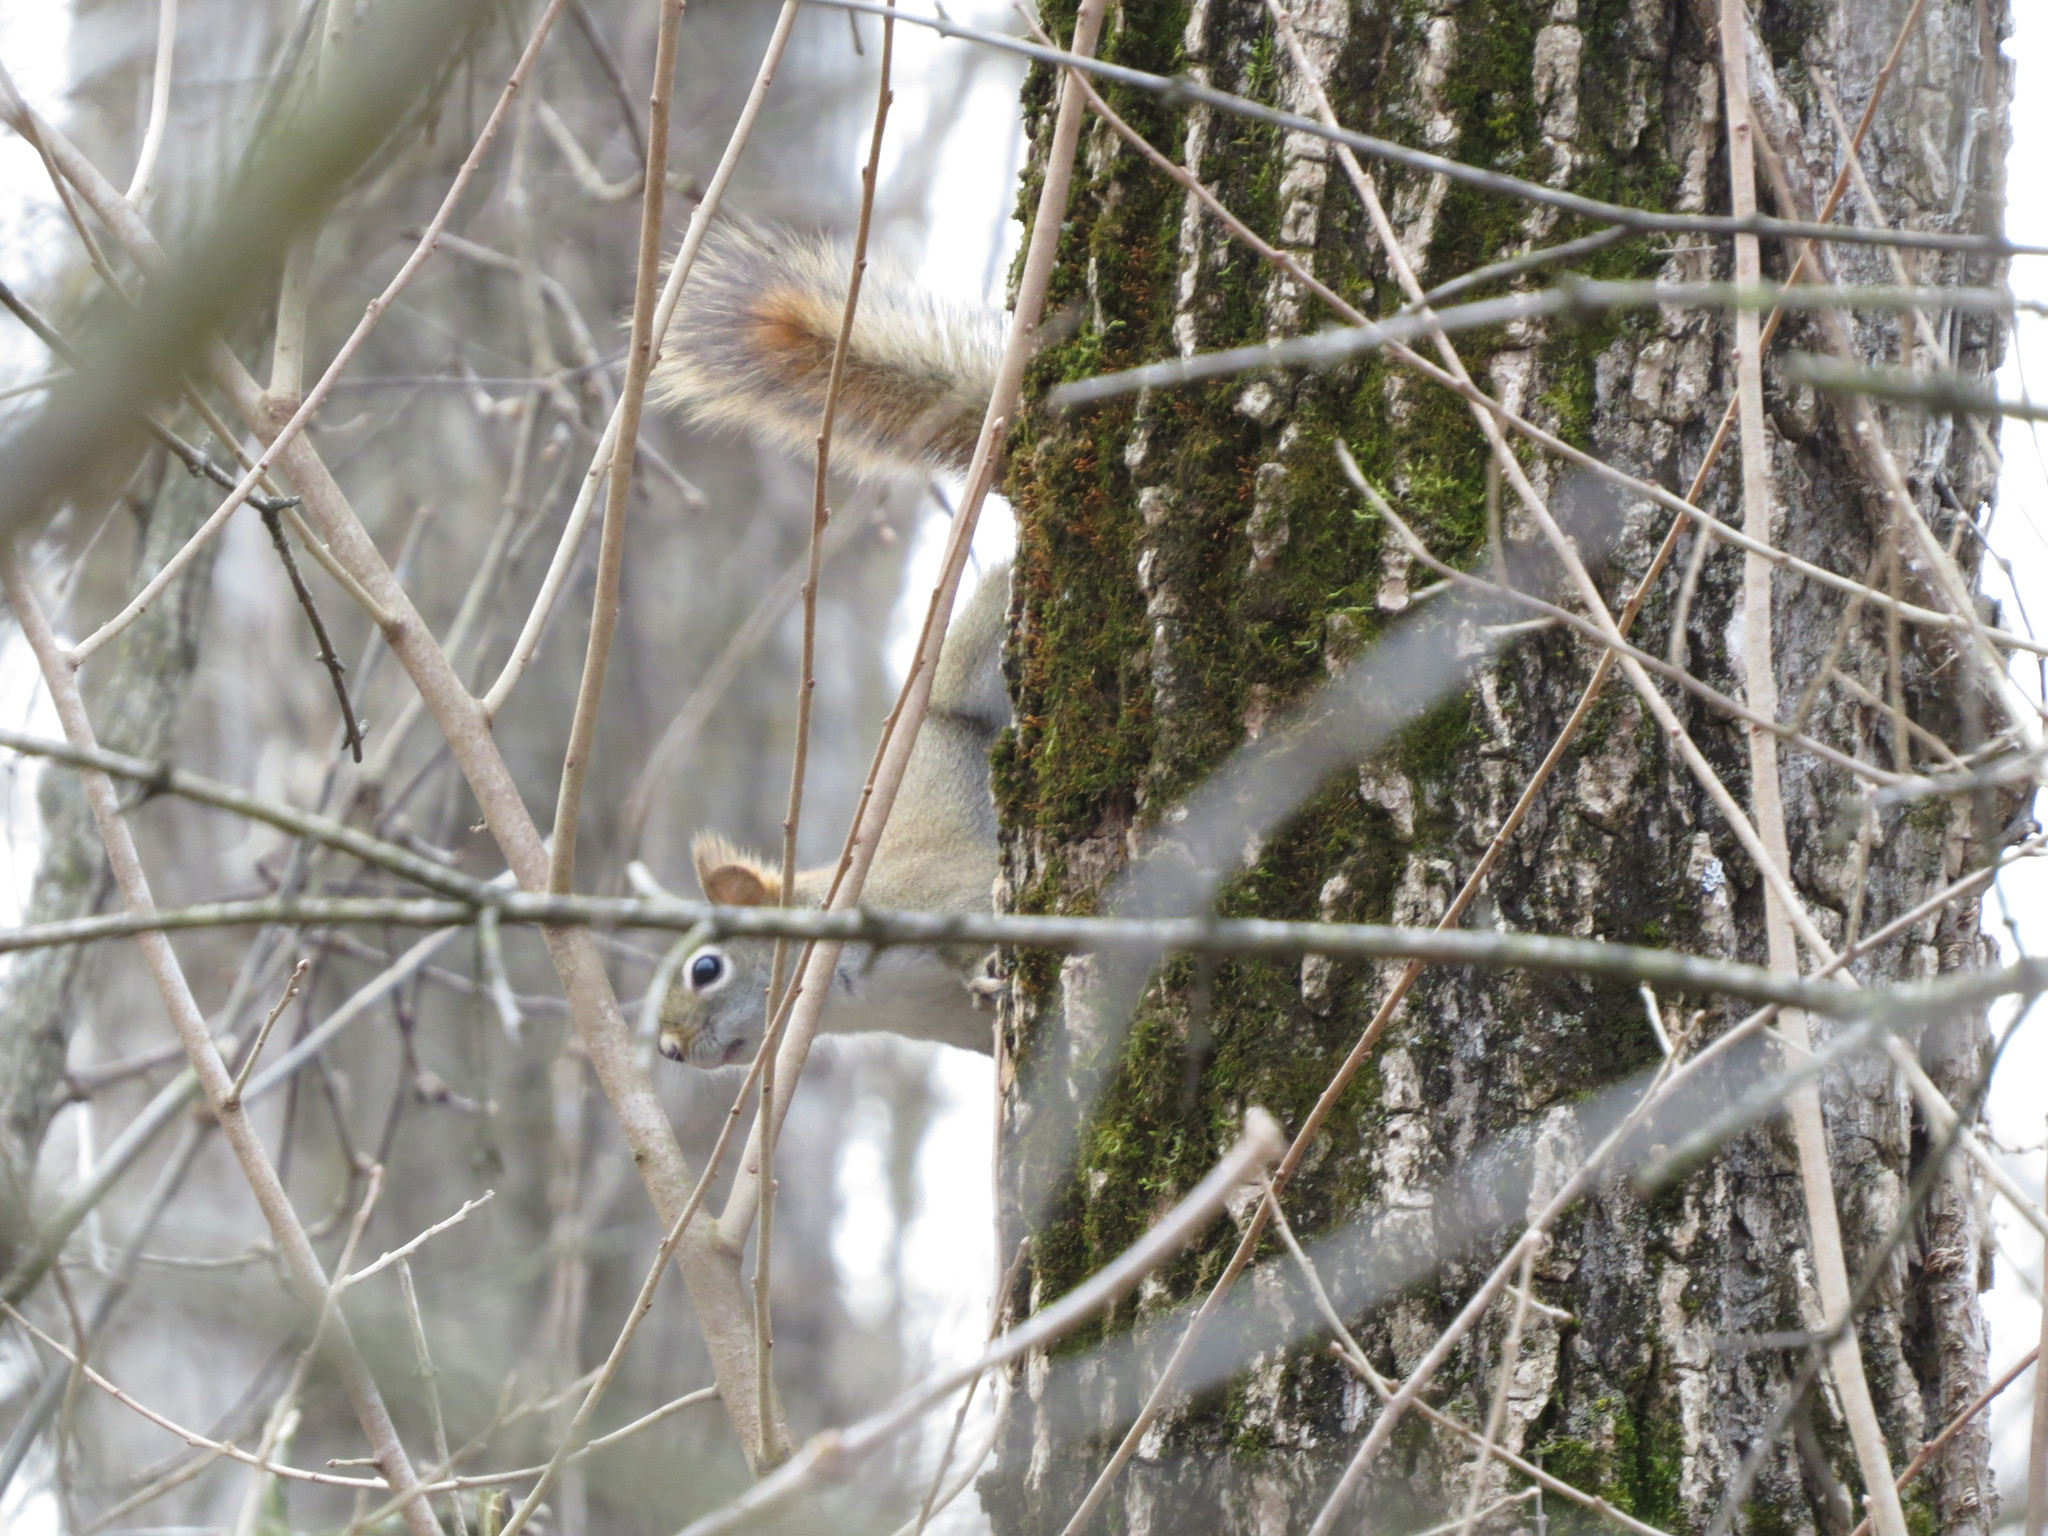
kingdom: Animalia
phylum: Chordata
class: Mammalia
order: Rodentia
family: Sciuridae
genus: Tamiasciurus
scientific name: Tamiasciurus hudsonicus
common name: Red squirrel
